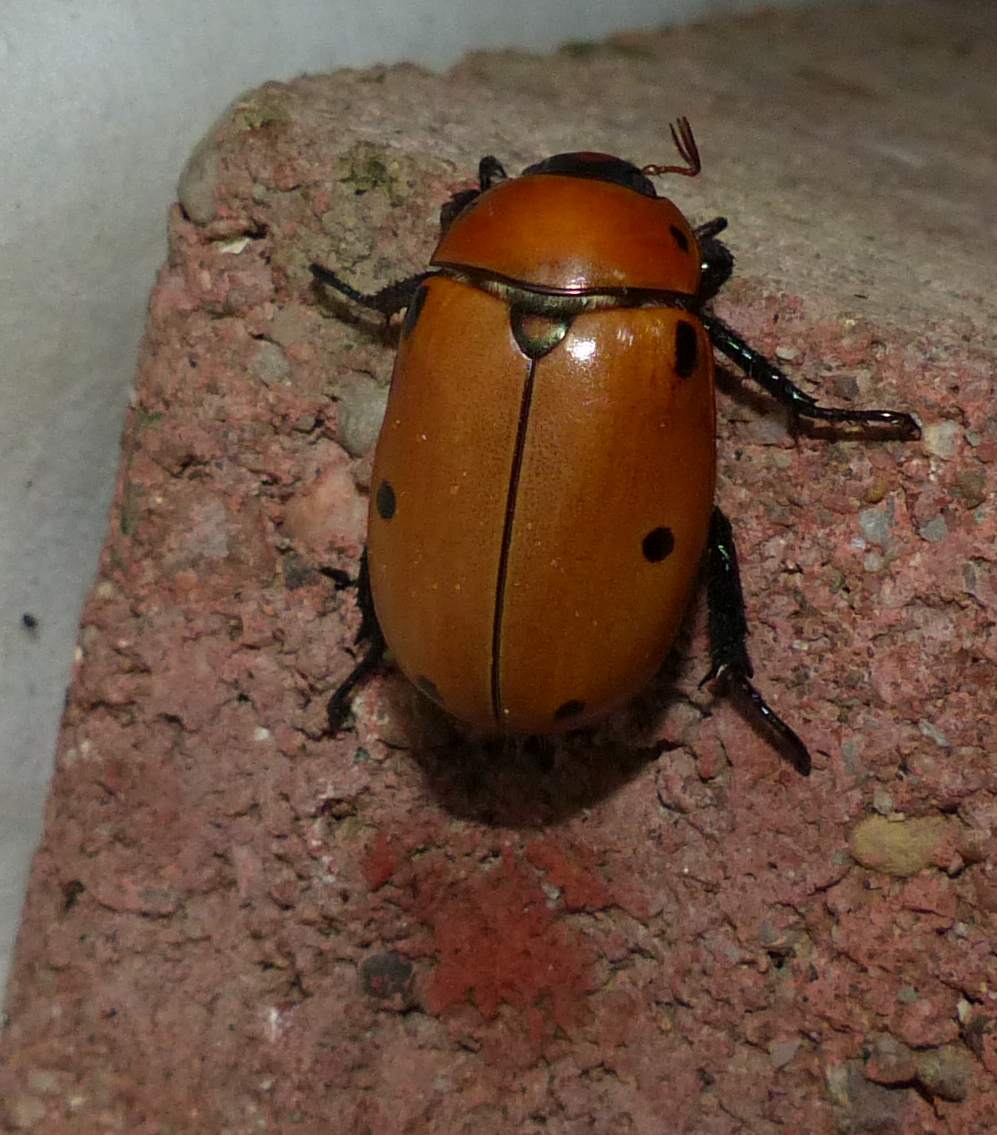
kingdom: Animalia
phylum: Arthropoda
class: Insecta
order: Coleoptera
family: Scarabaeidae
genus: Pelidnota
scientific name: Pelidnota punctata
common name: Grapevine beetle
